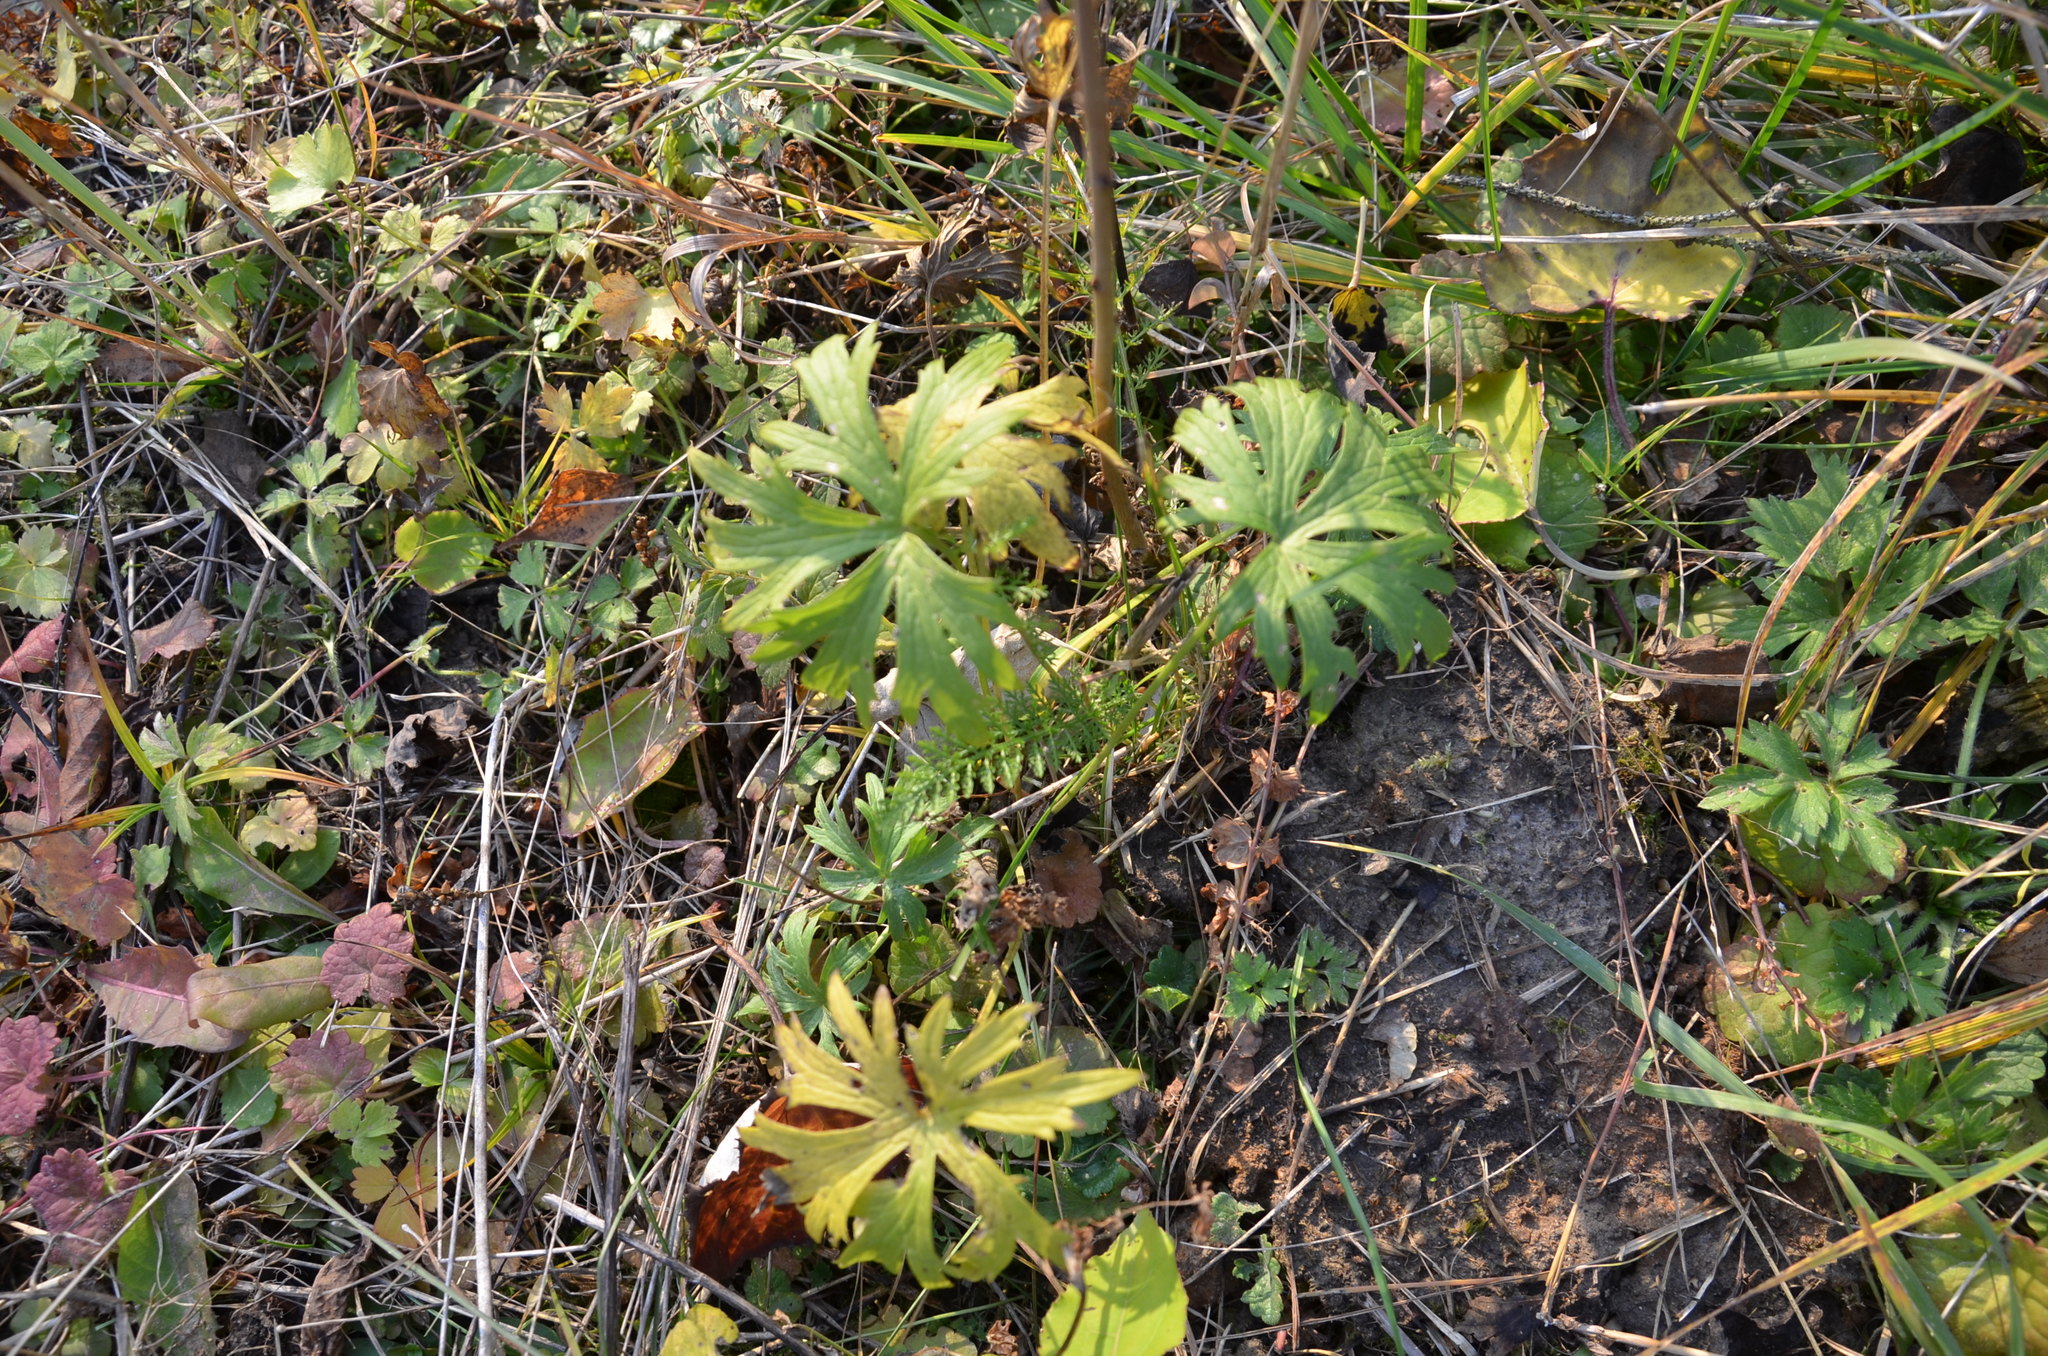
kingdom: Plantae
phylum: Tracheophyta
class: Magnoliopsida
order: Ranunculales
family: Ranunculaceae
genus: Ranunculus
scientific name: Ranunculus acris
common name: Meadow buttercup
